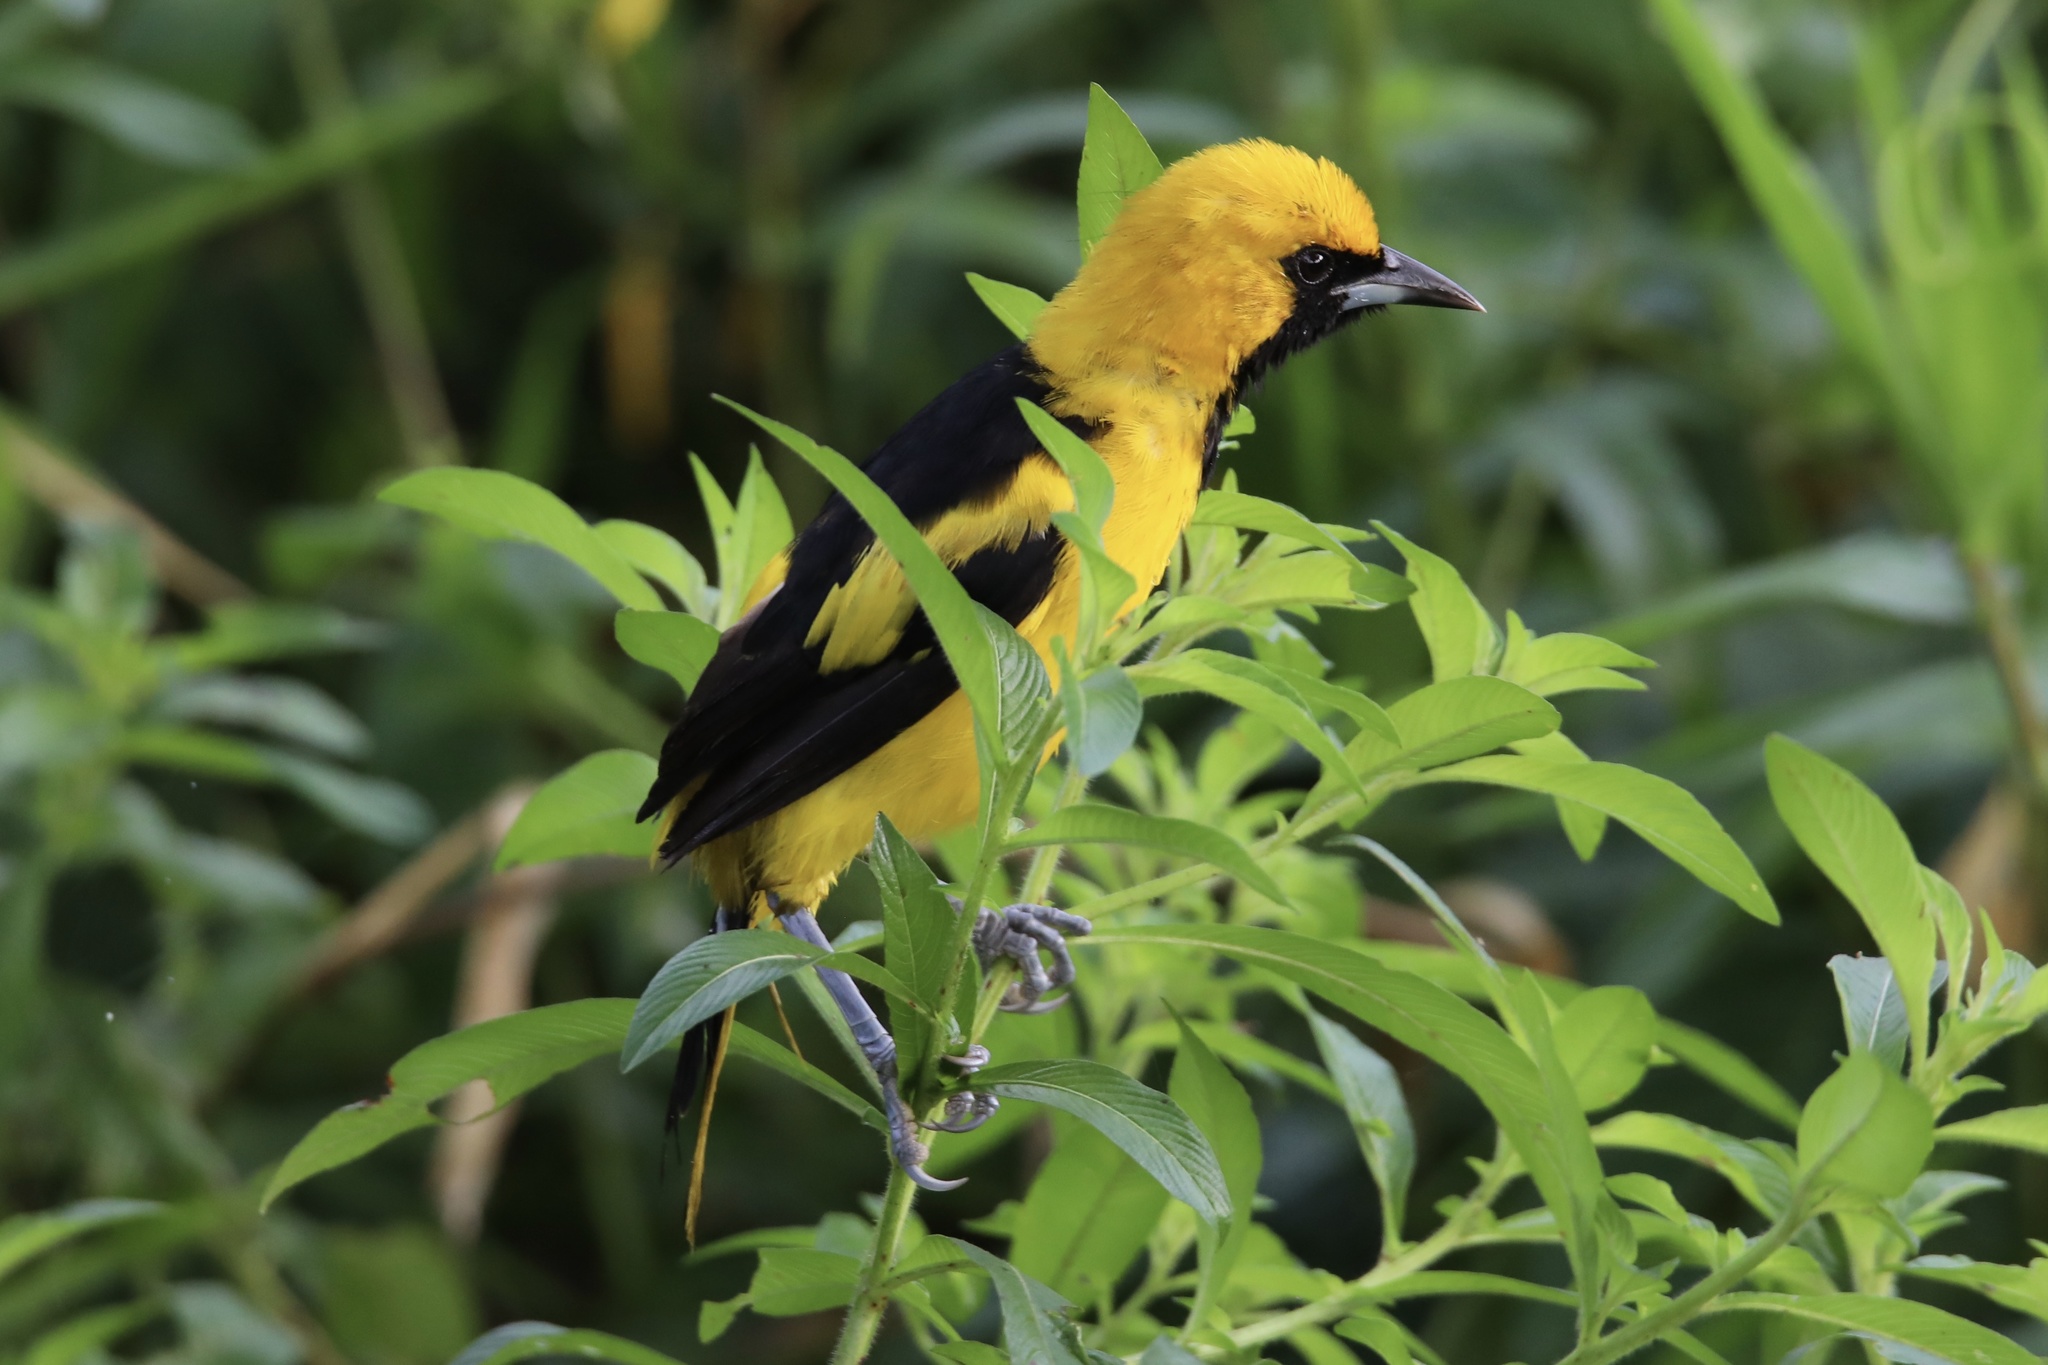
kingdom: Animalia
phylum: Chordata
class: Aves
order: Passeriformes
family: Icteridae
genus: Icterus
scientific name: Icterus mesomelas
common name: Yellow-tailed oriole
